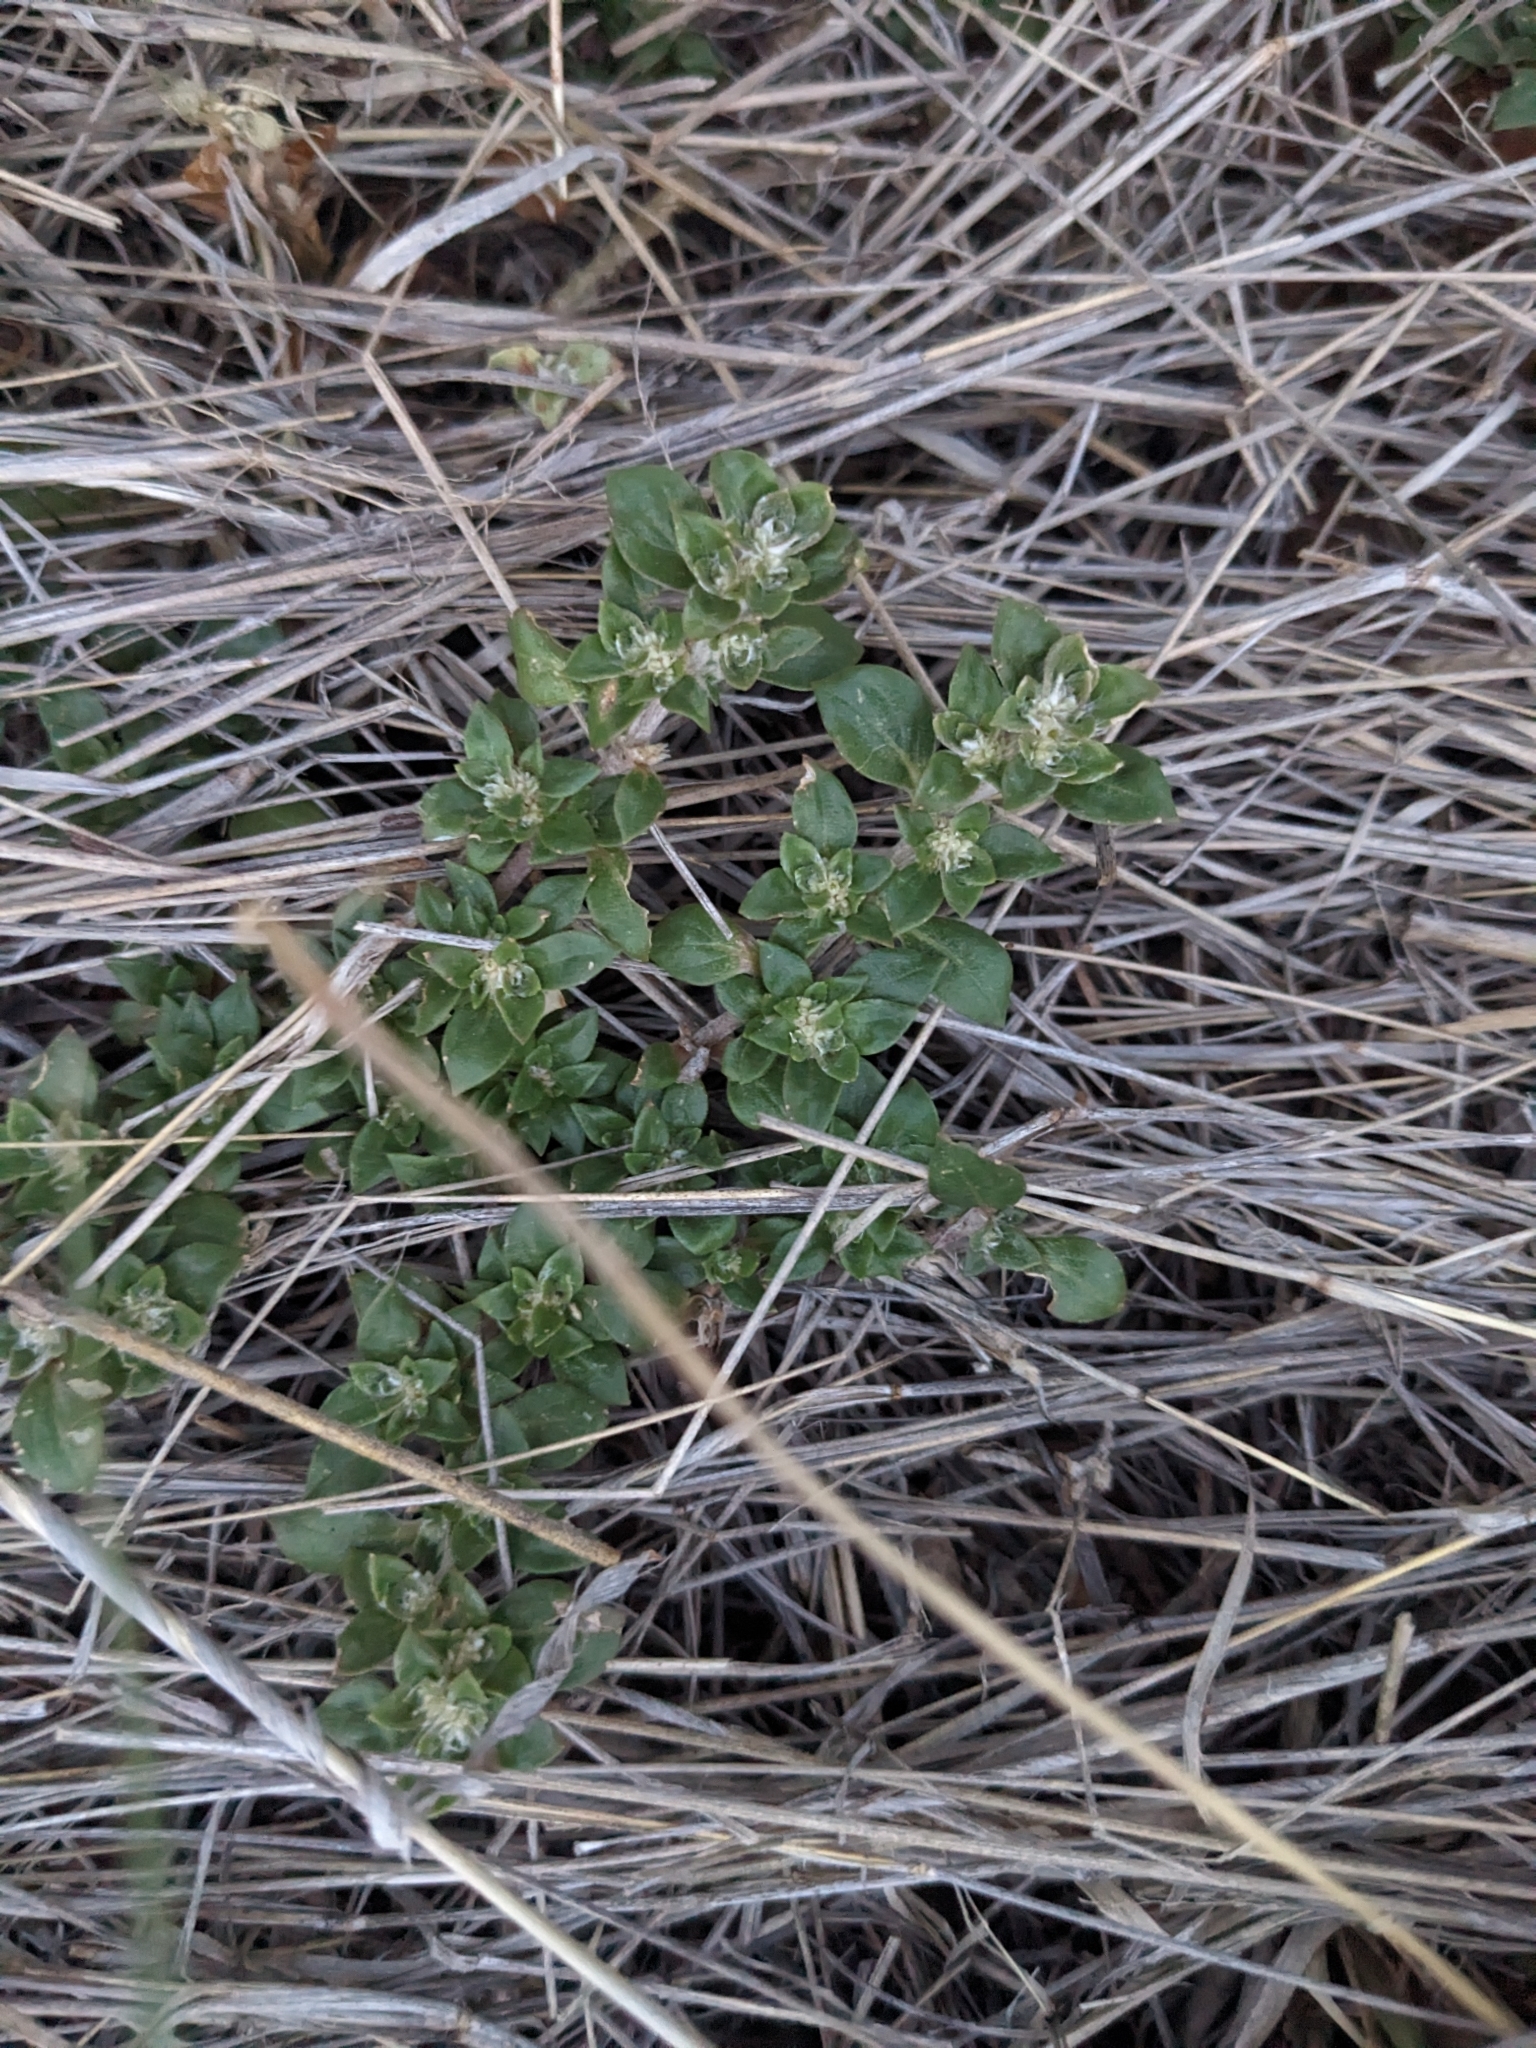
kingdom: Plantae
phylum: Tracheophyta
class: Magnoliopsida
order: Caryophyllales
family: Amaranthaceae
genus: Guilleminea
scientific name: Guilleminea densa
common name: Small matweed
